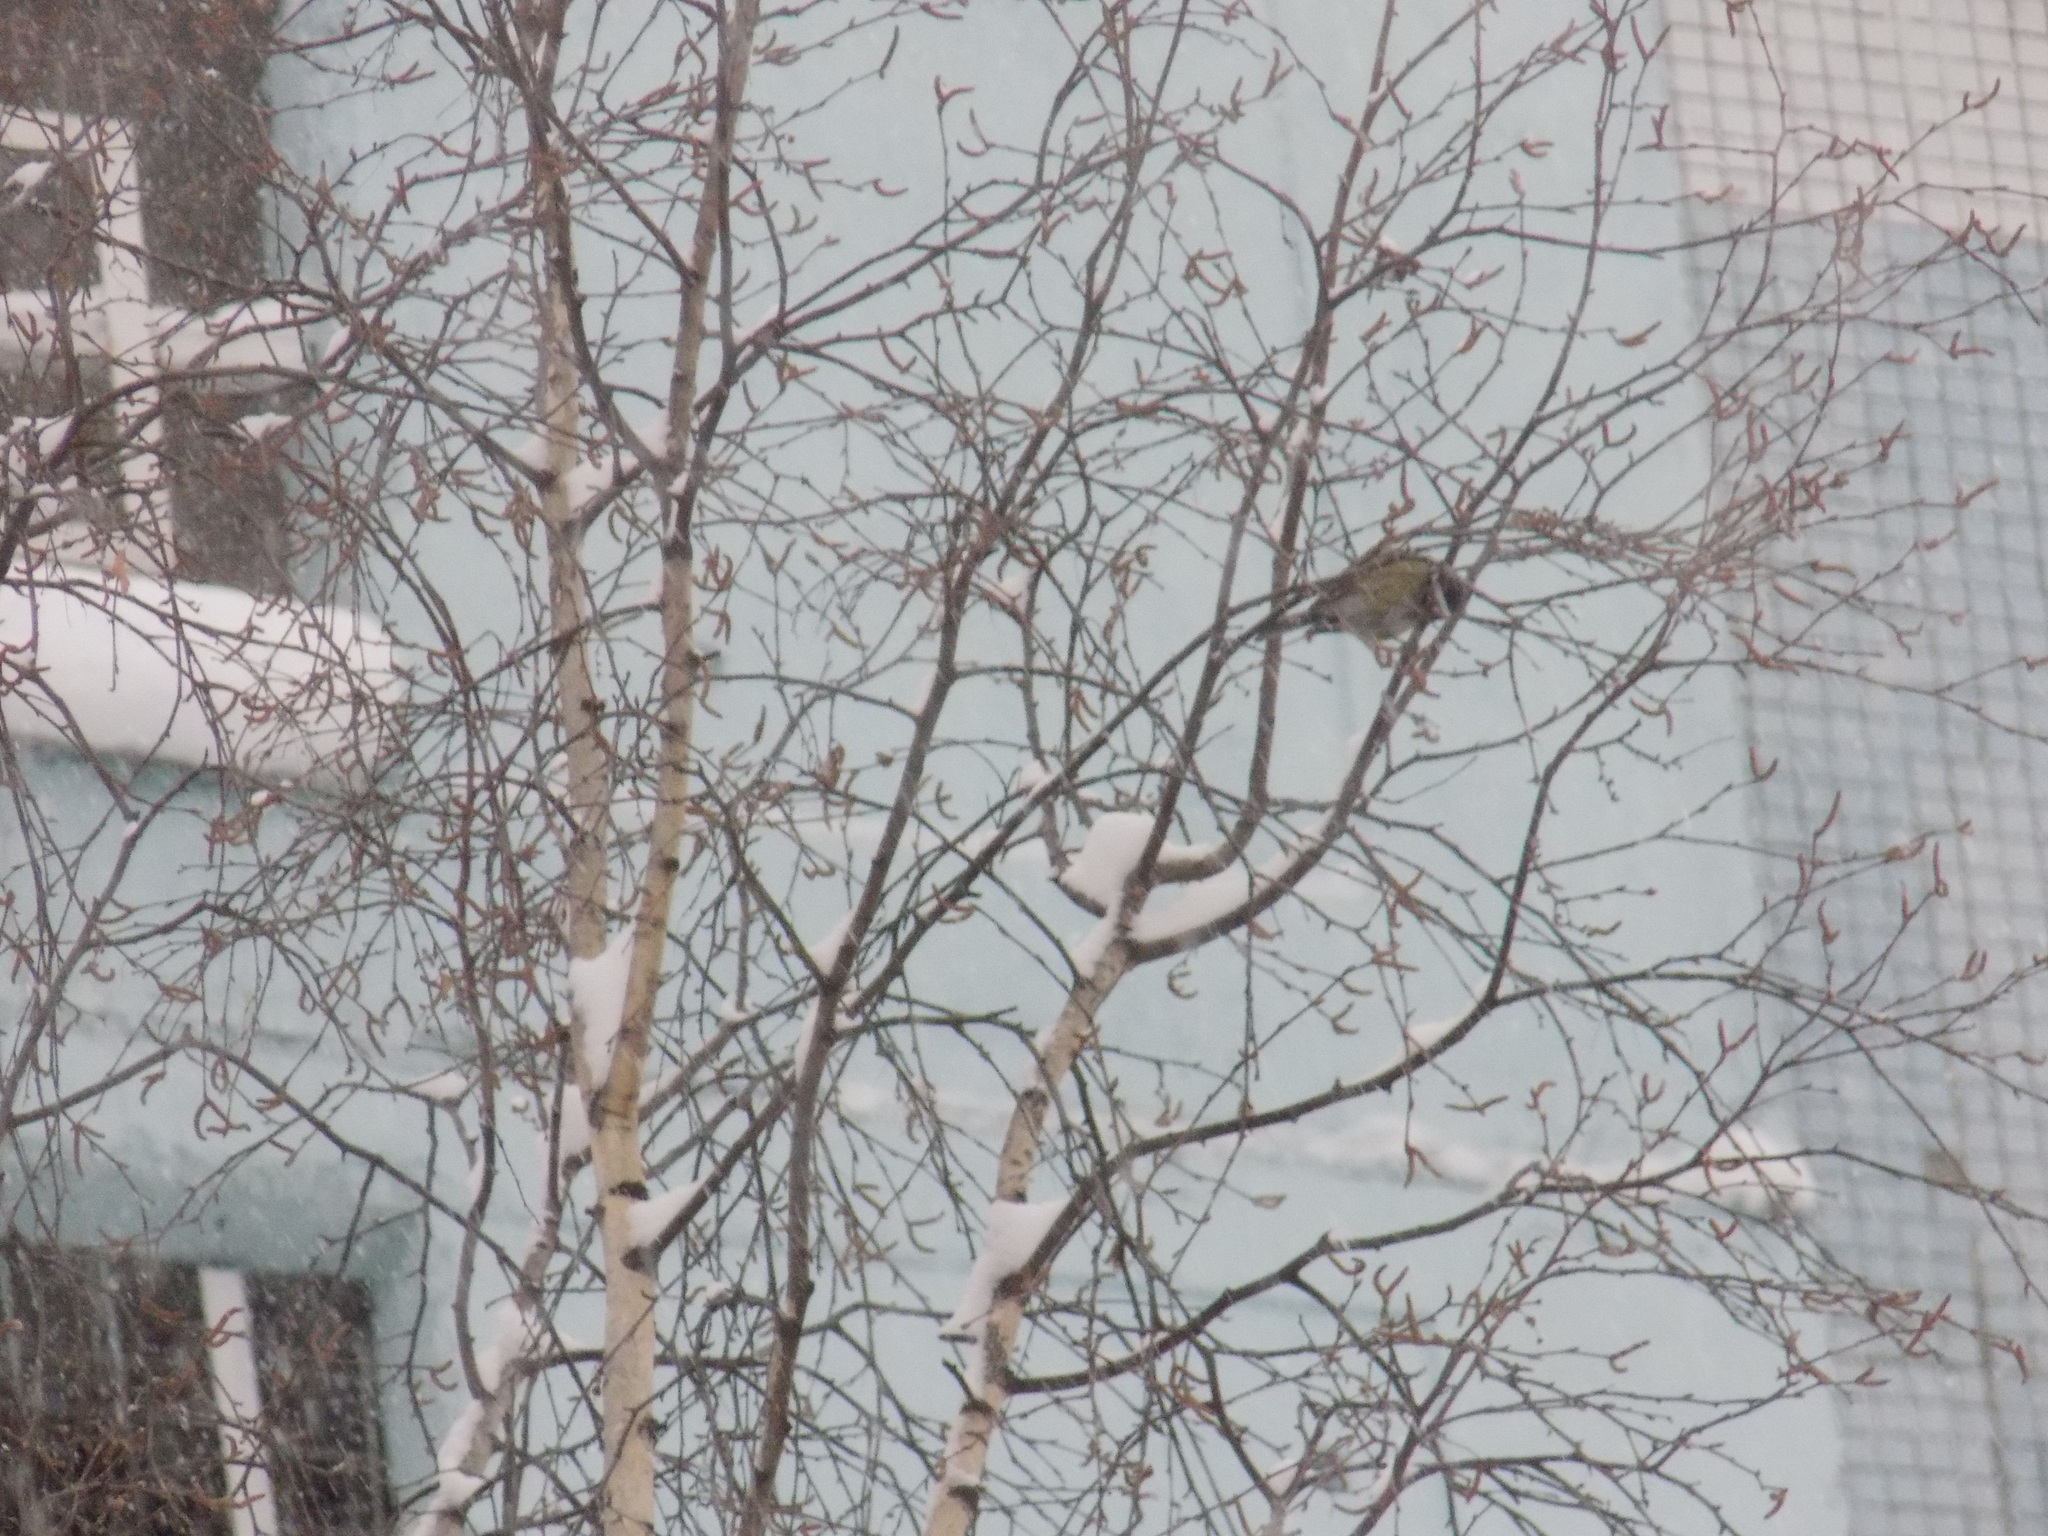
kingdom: Animalia
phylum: Chordata
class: Aves
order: Passeriformes
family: Paridae
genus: Parus
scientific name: Parus major
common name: Great tit
